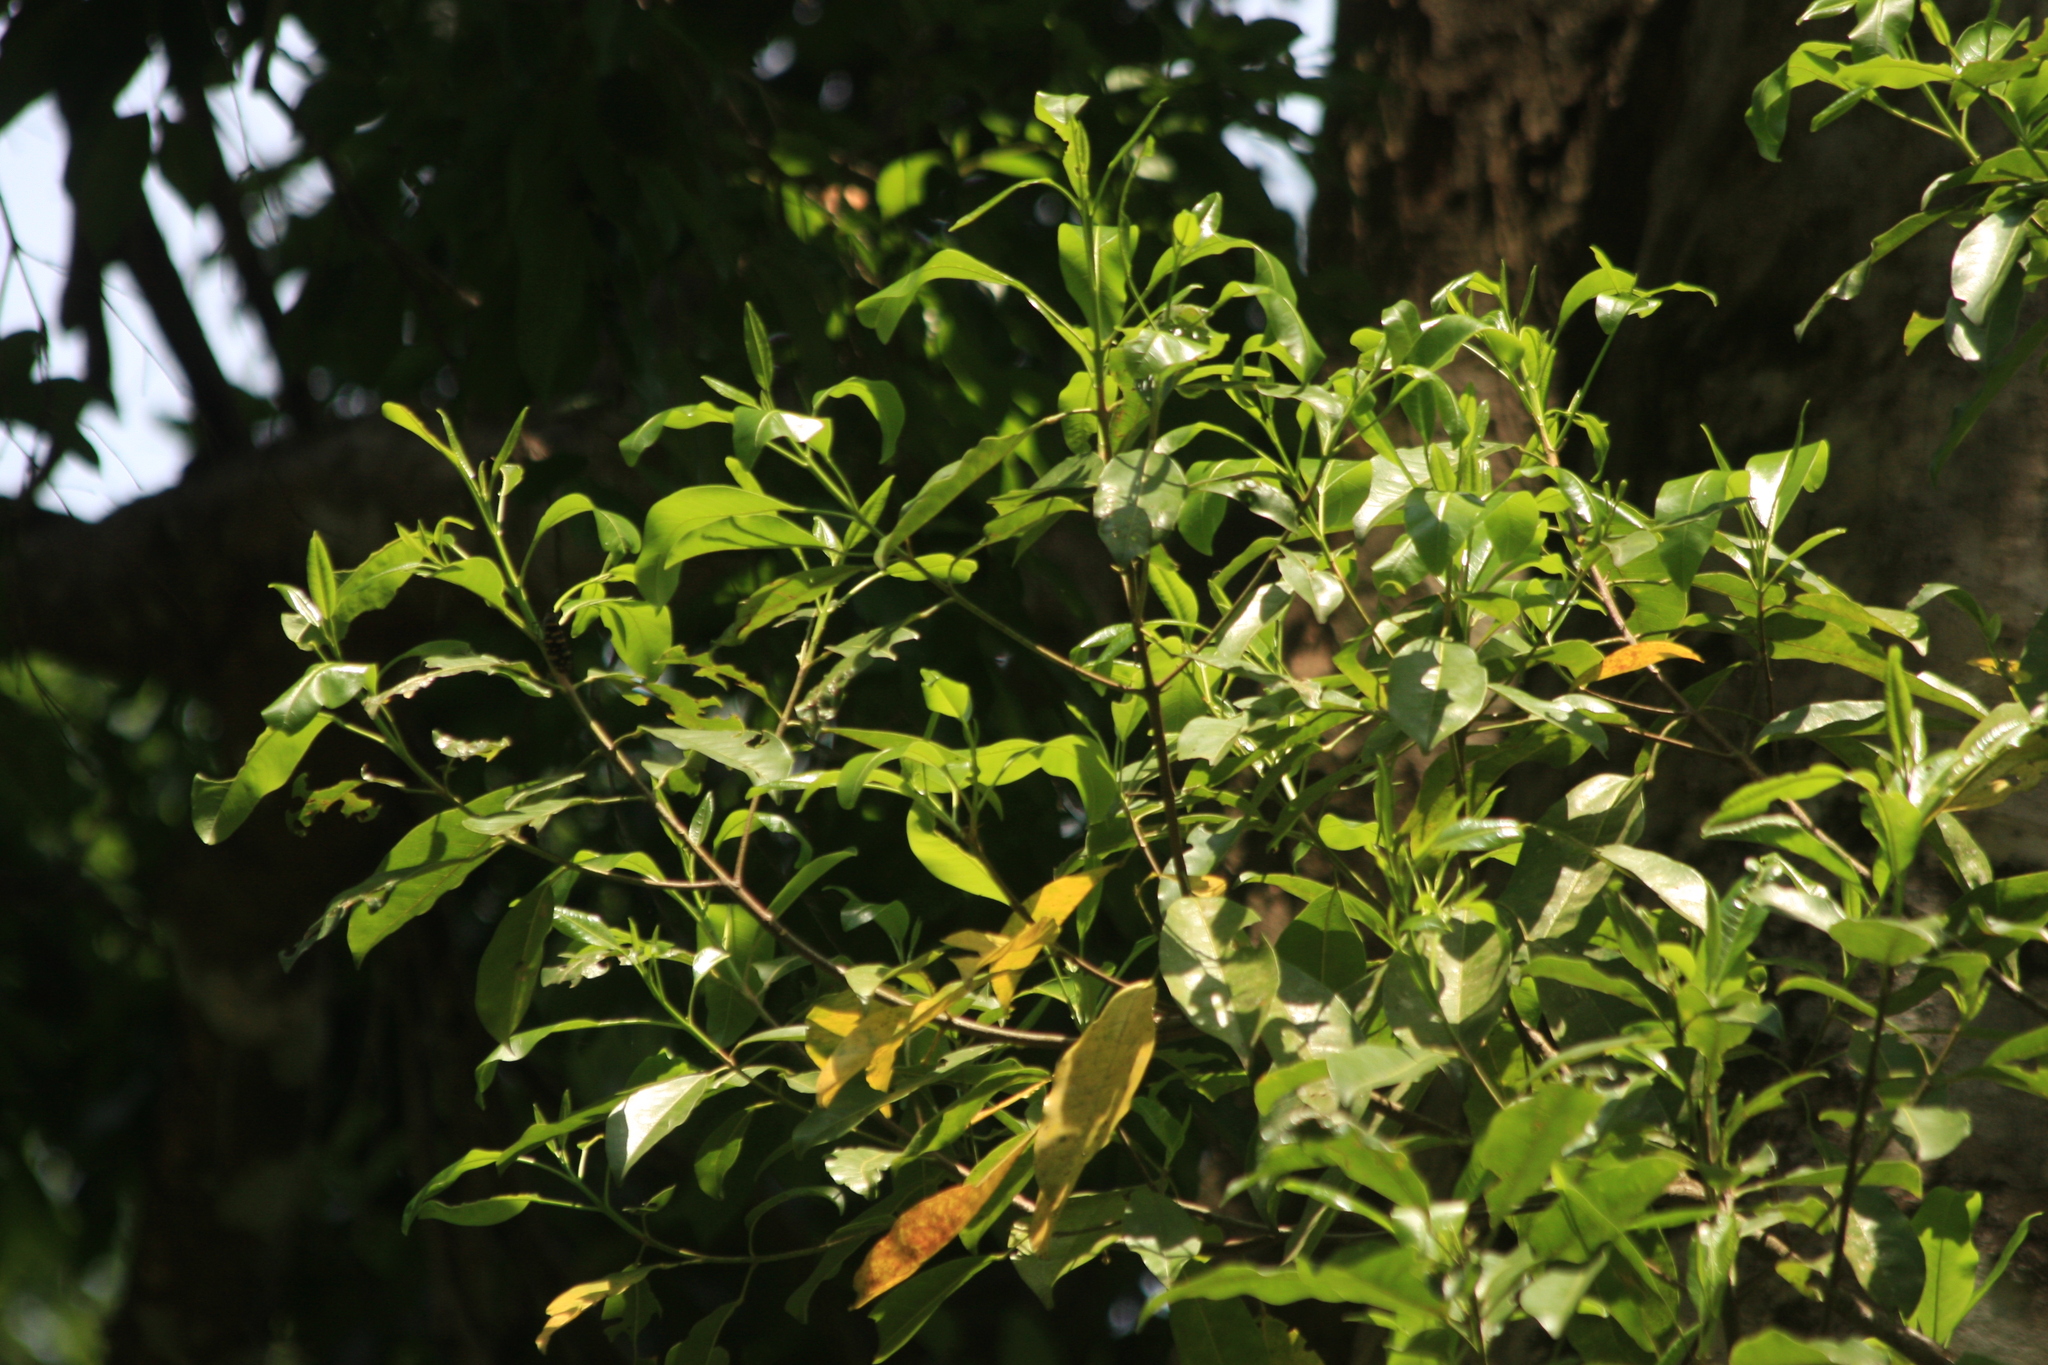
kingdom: Plantae
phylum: Tracheophyta
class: Magnoliopsida
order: Sapindales
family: Rutaceae
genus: Acronychia
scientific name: Acronychia pedunculata
